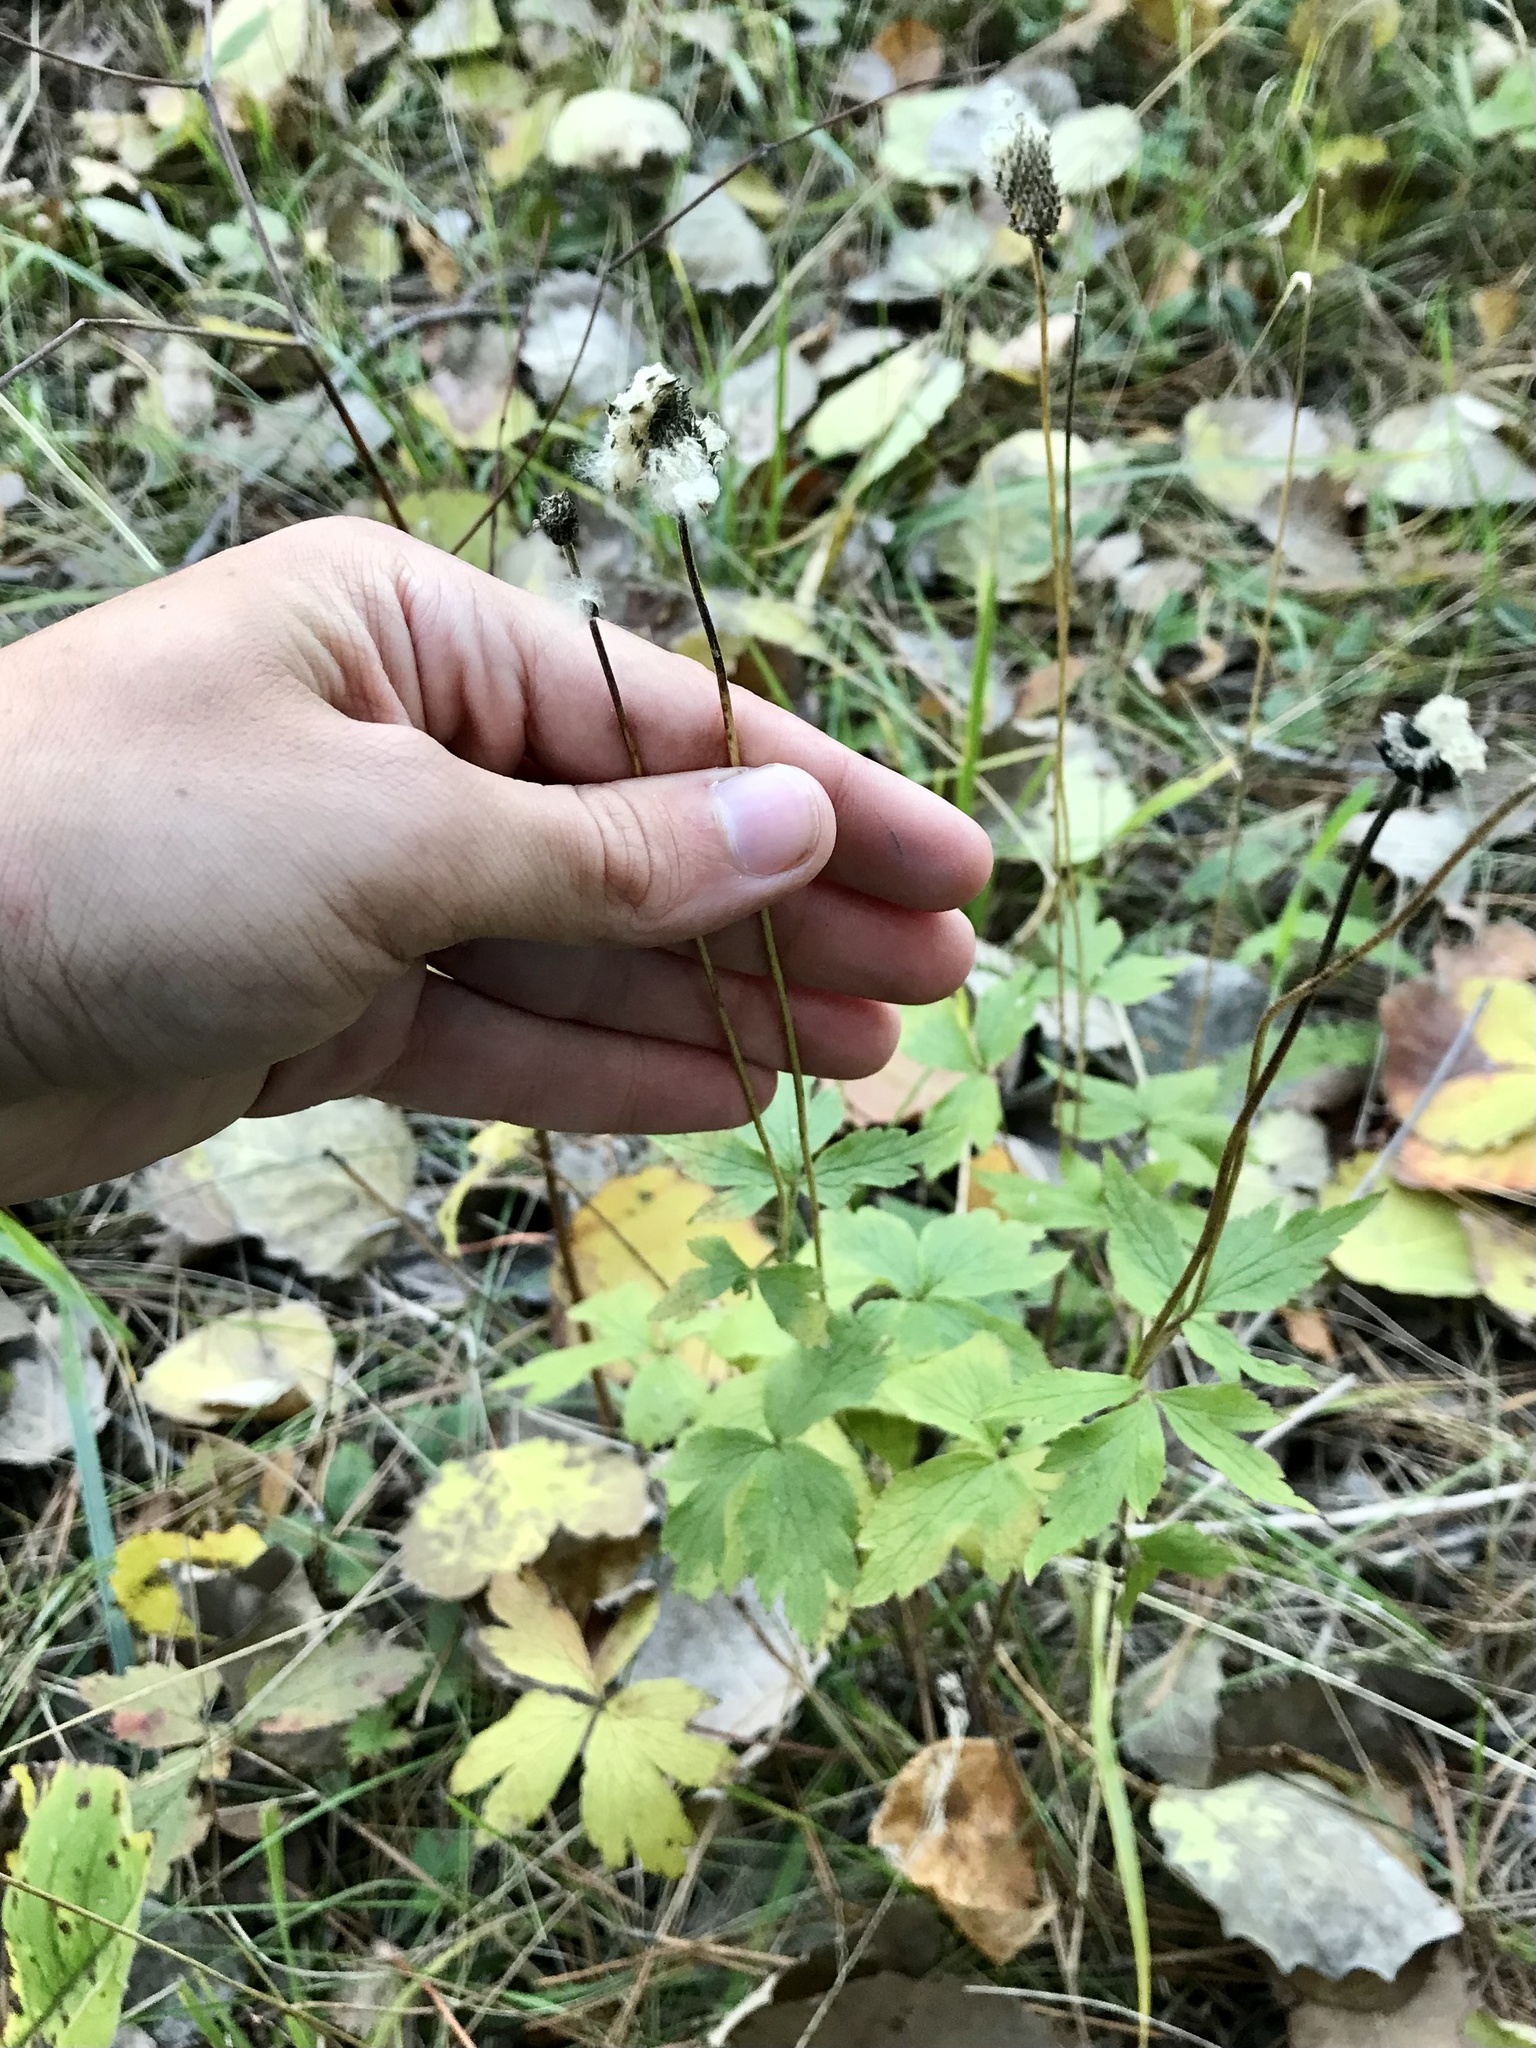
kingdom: Plantae
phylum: Tracheophyta
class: Magnoliopsida
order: Ranunculales
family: Ranunculaceae
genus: Anemone
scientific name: Anemone virginiana
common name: Tall anemone
